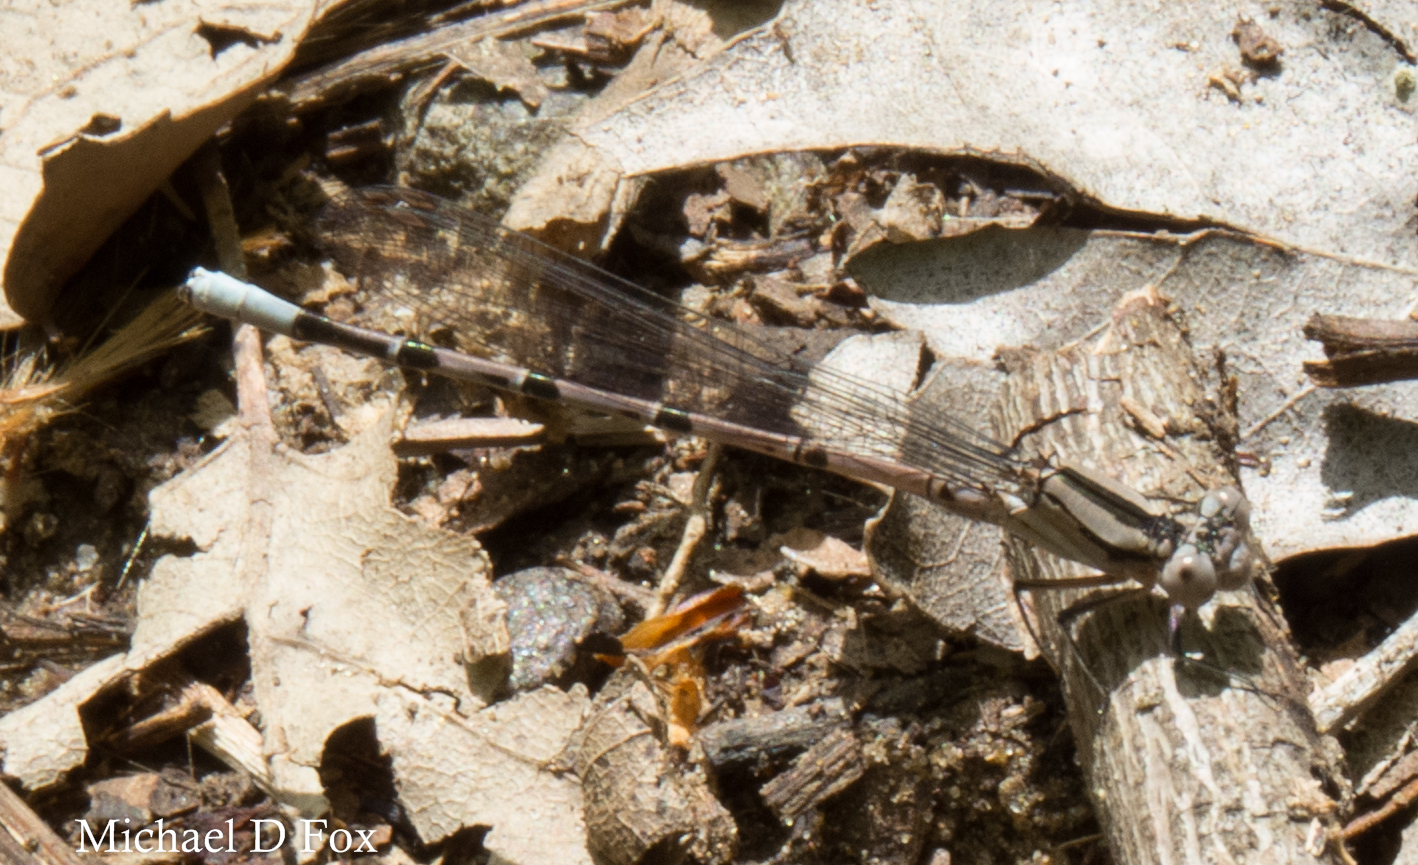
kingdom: Animalia
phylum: Arthropoda
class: Insecta
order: Odonata
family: Coenagrionidae
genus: Argia
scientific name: Argia funebris
